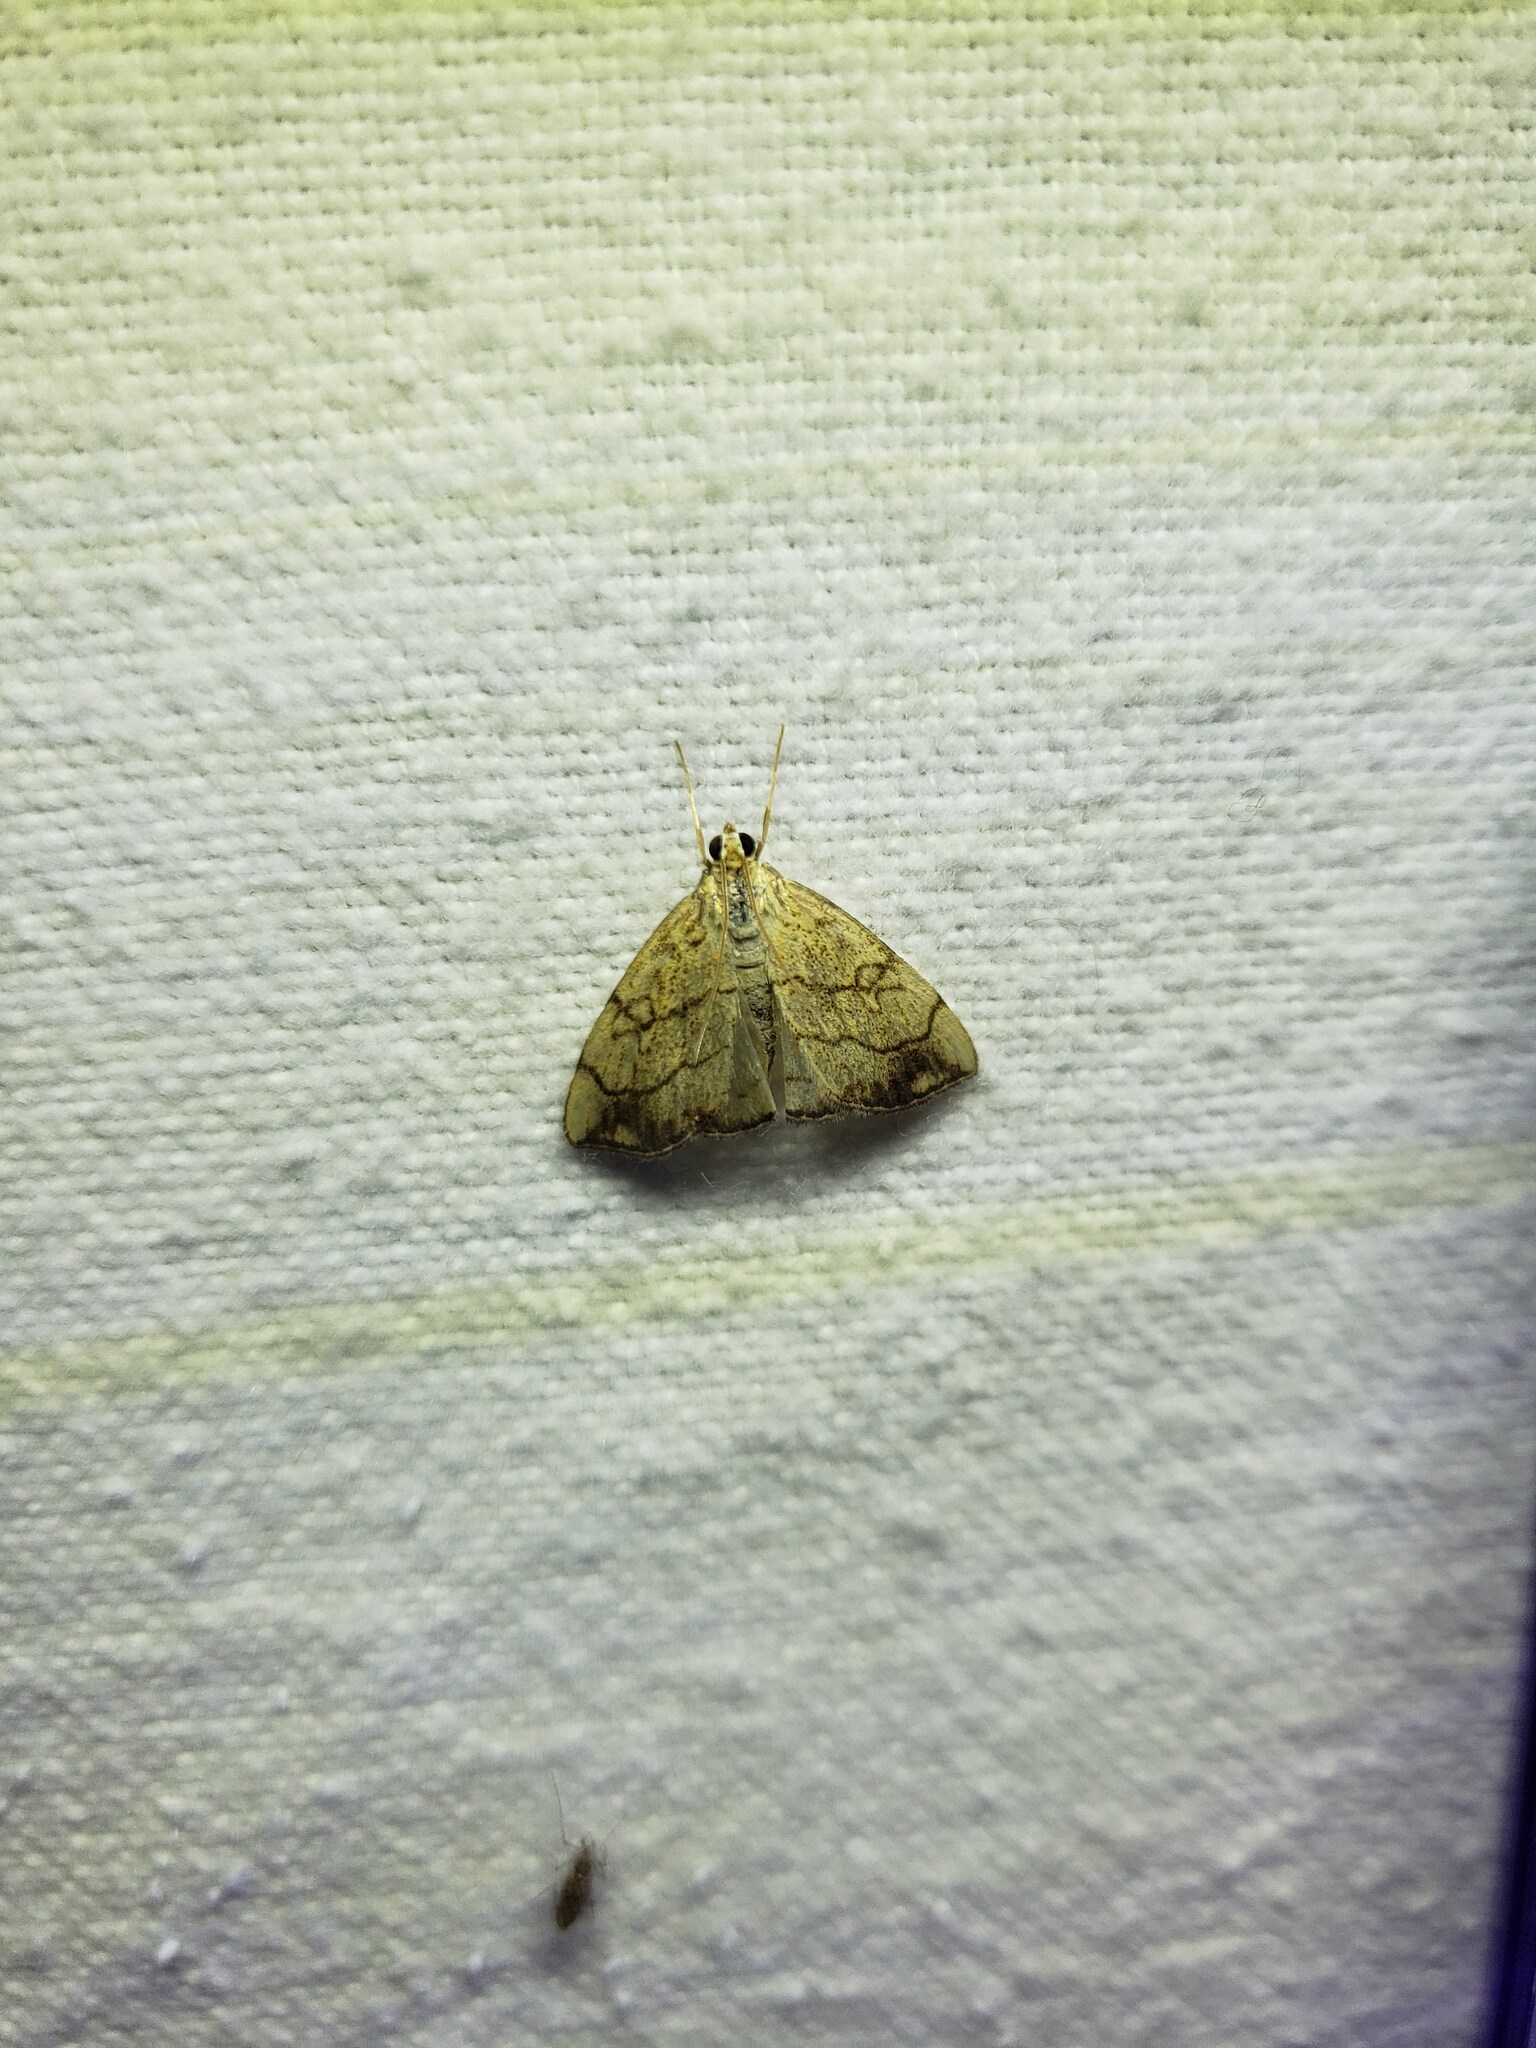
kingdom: Animalia
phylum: Arthropoda
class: Insecta
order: Lepidoptera
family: Crambidae
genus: Evergestis
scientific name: Evergestis pallidata
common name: Chequered pearl
